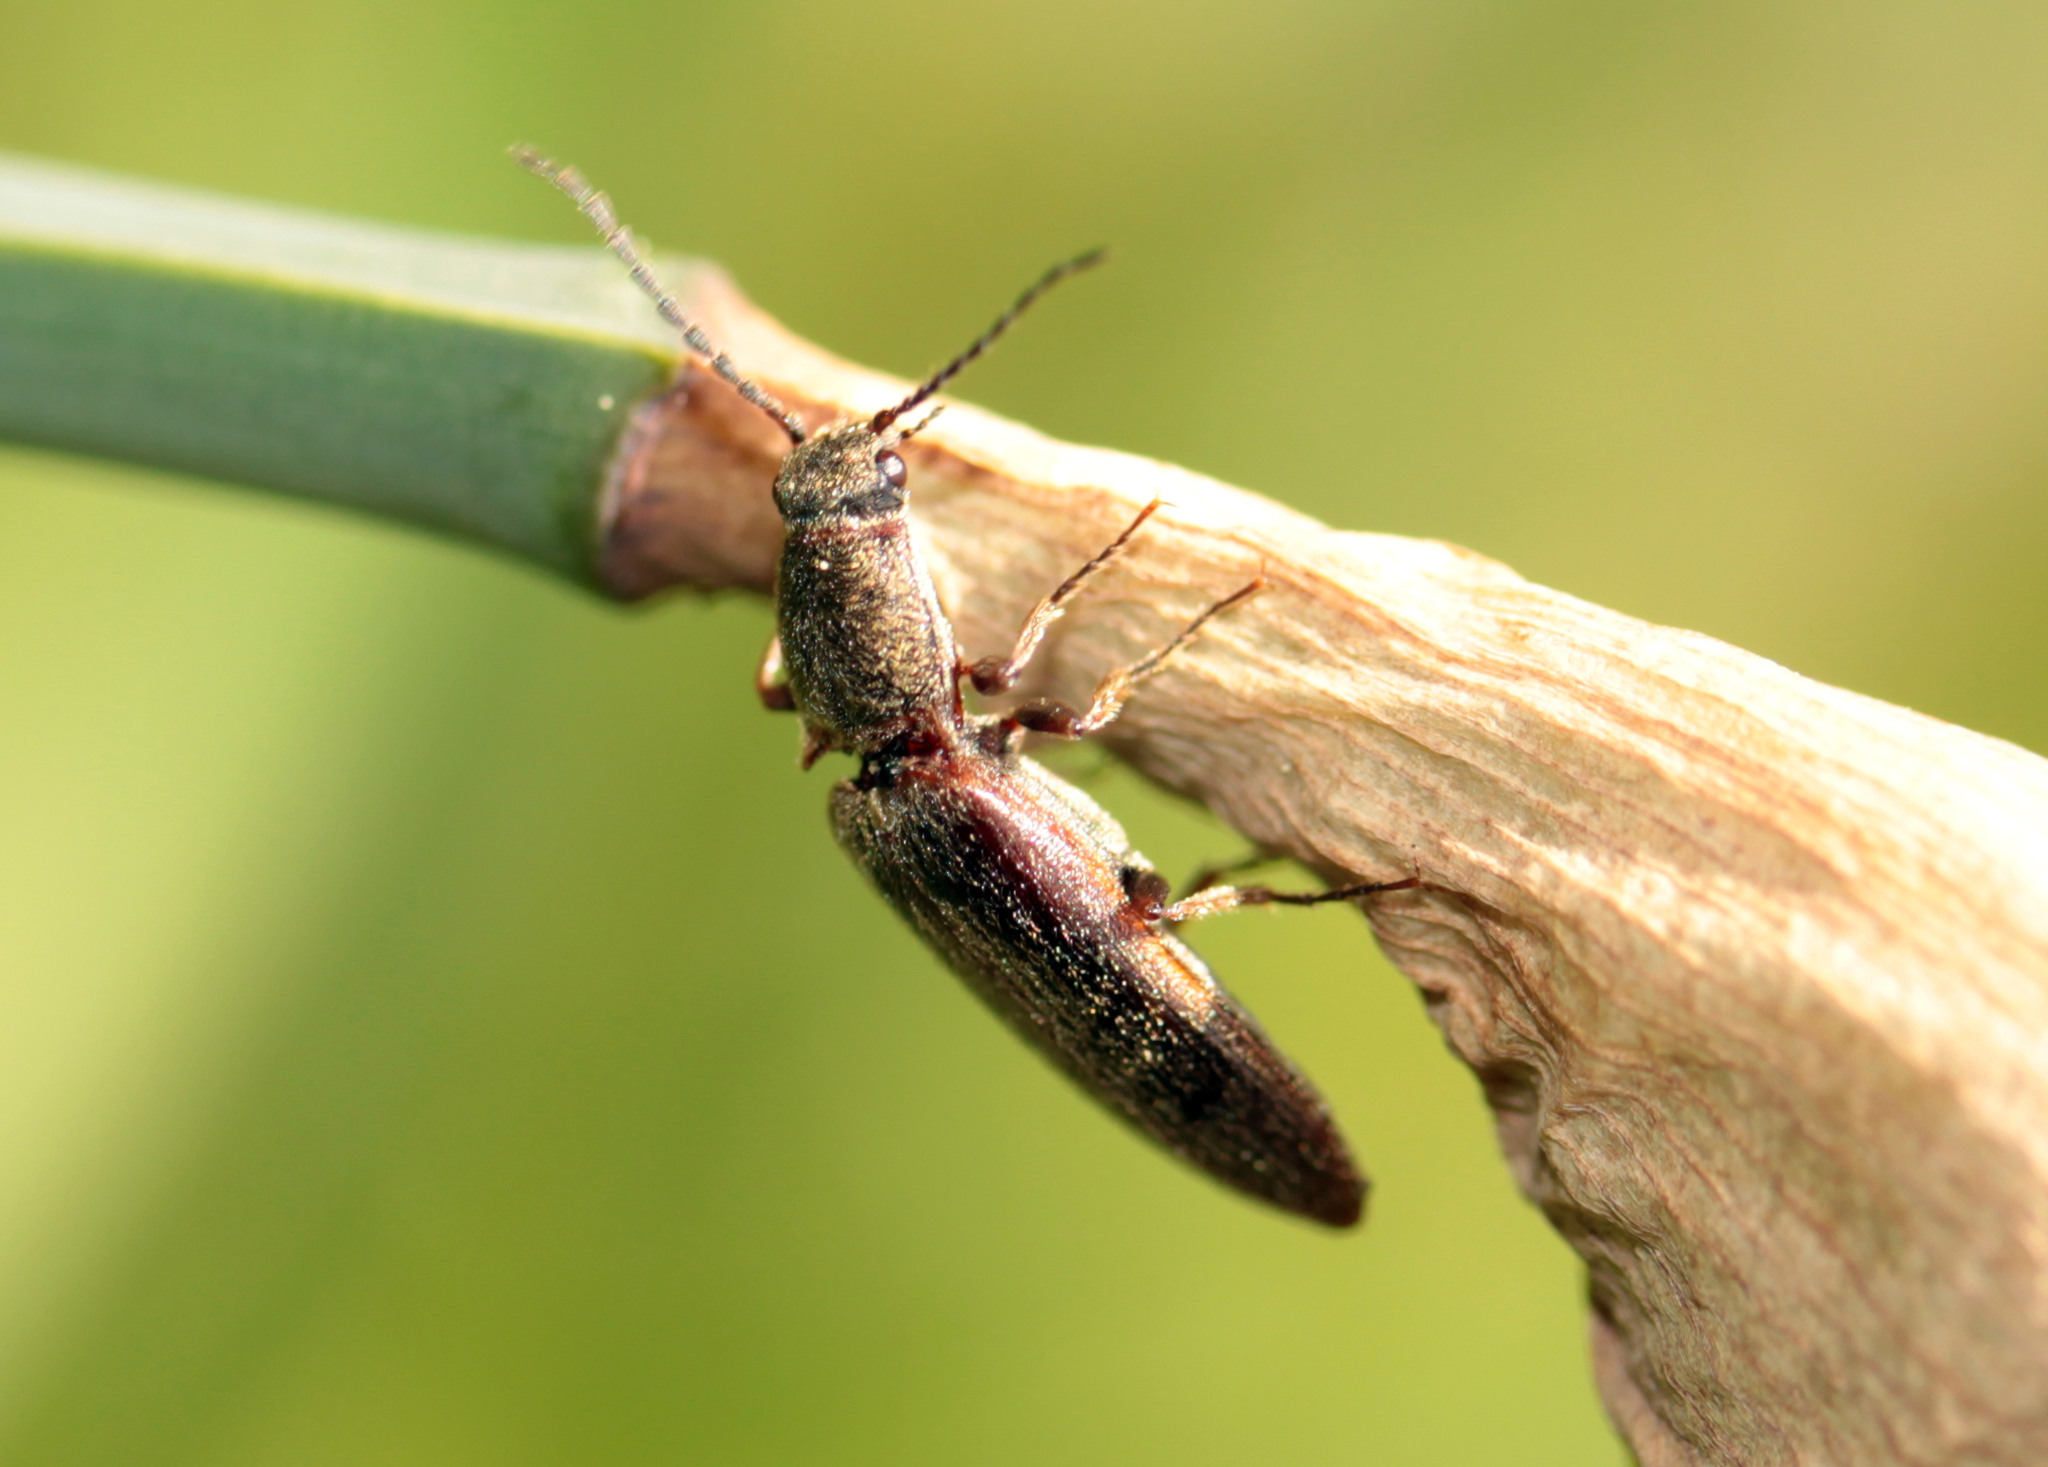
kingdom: Animalia
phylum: Arthropoda
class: Insecta
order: Coleoptera
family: Elateridae
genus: Sylvanelater
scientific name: Sylvanelater cylindriformis
